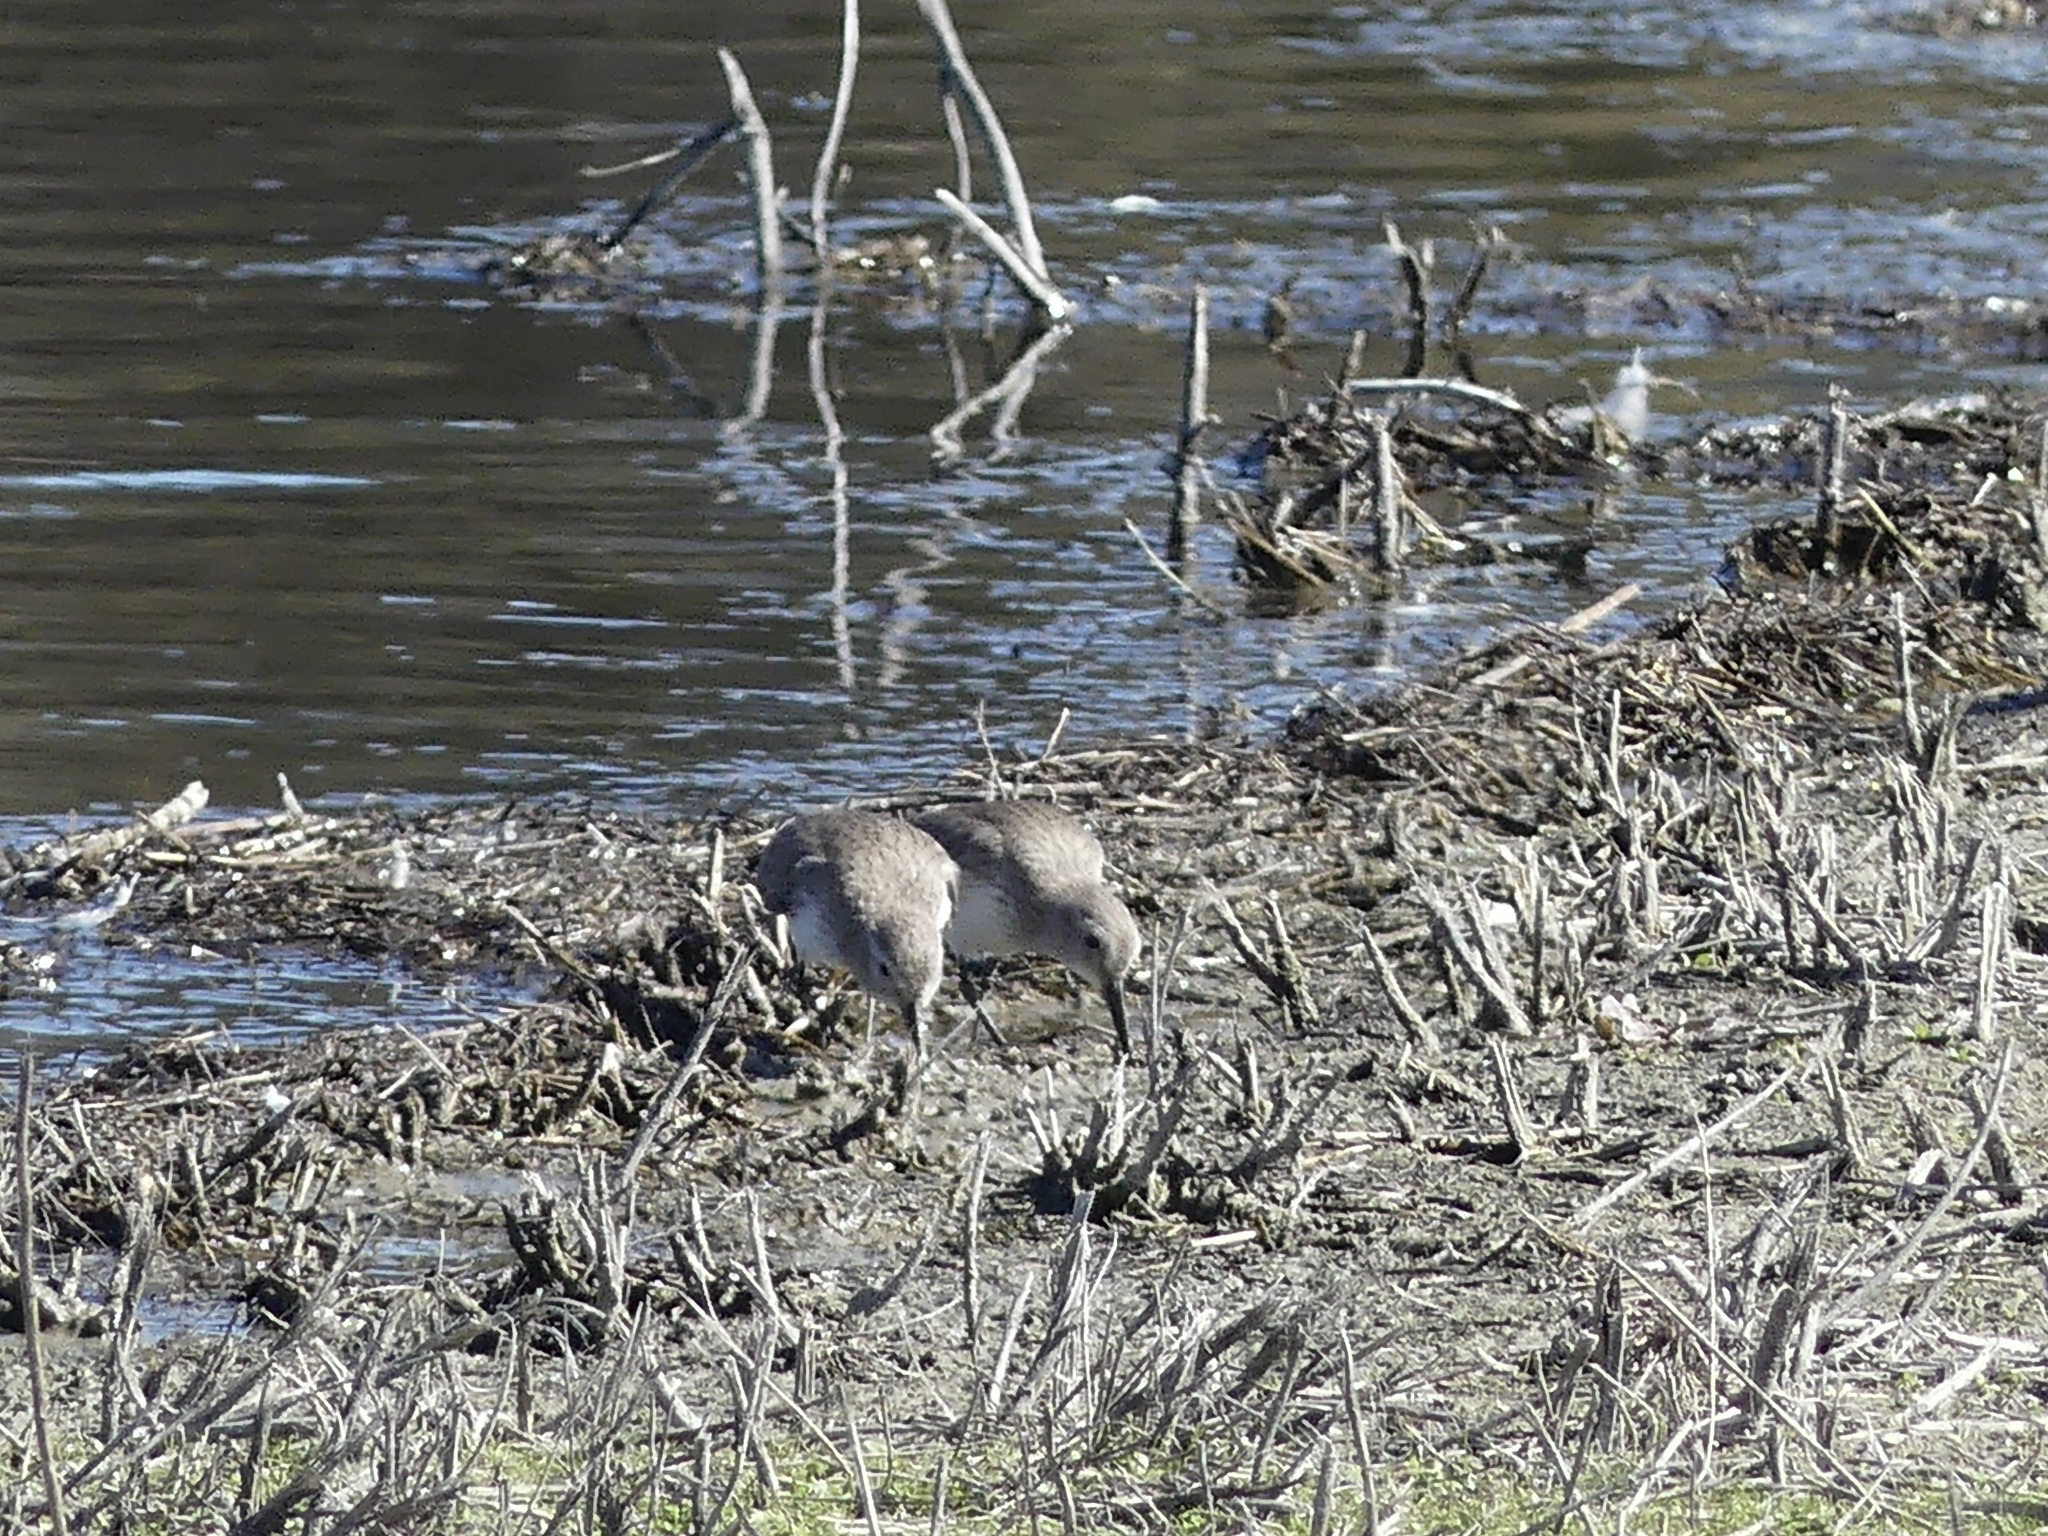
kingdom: Animalia
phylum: Chordata
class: Aves
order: Charadriiformes
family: Scolopacidae
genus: Calidris
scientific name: Calidris alpina
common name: Dunlin
